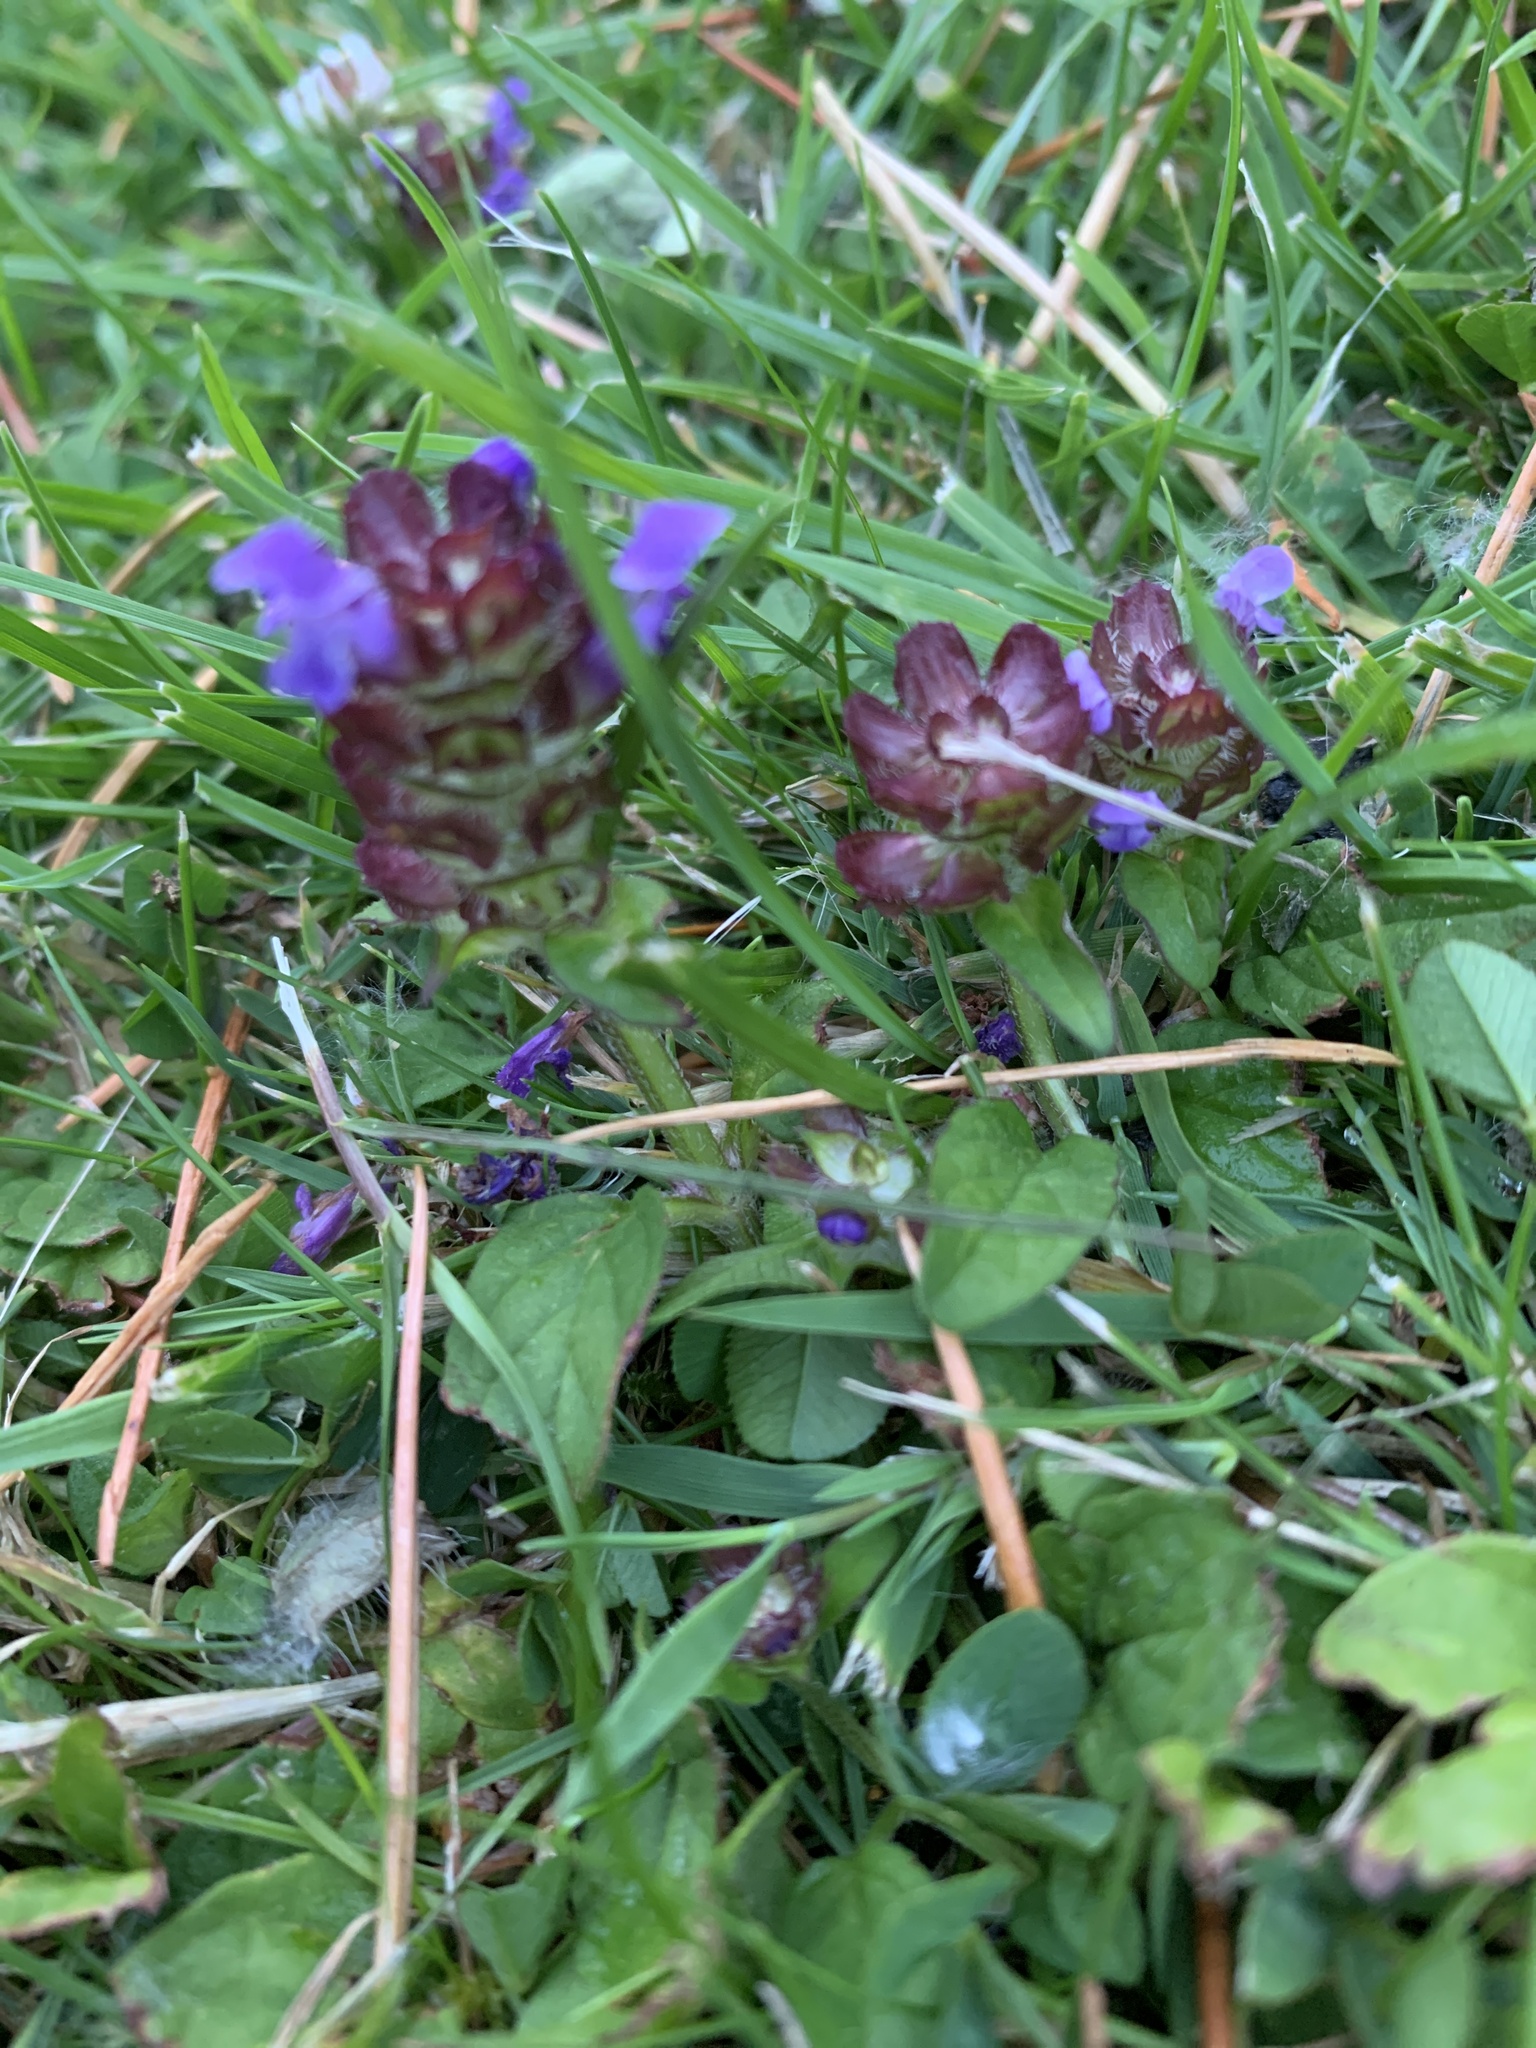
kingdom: Plantae
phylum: Tracheophyta
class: Magnoliopsida
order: Lamiales
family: Lamiaceae
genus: Prunella
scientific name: Prunella vulgaris
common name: Heal-all
